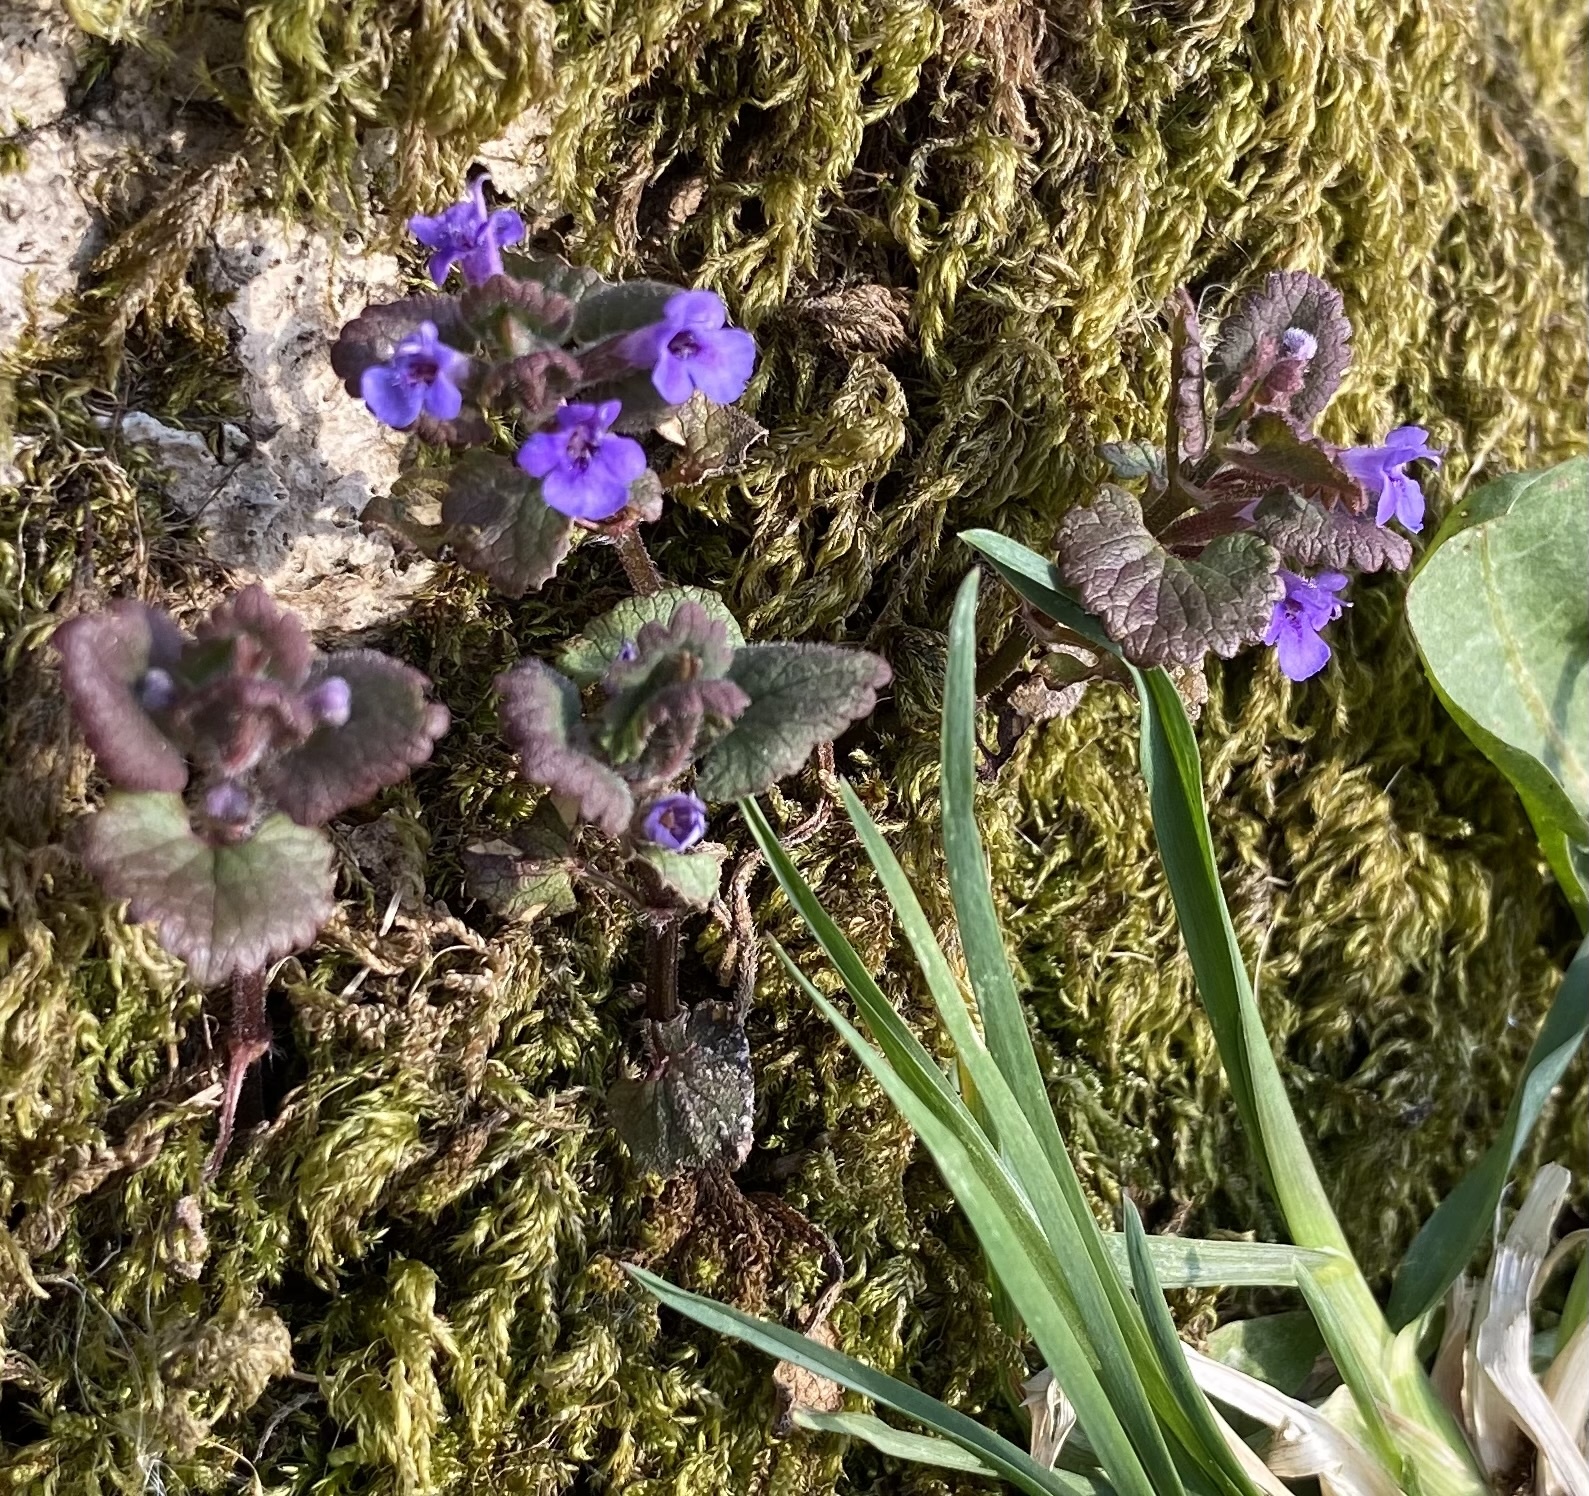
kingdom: Plantae
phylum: Tracheophyta
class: Magnoliopsida
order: Lamiales
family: Lamiaceae
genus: Glechoma
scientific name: Glechoma hederacea
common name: Ground ivy
